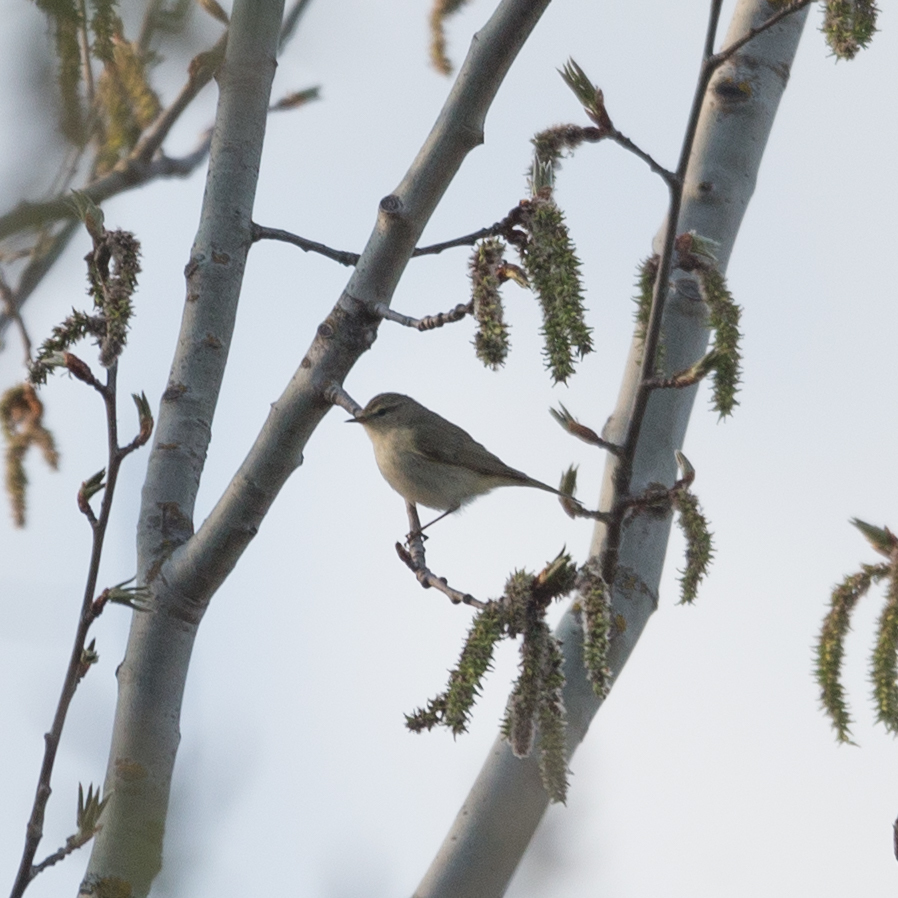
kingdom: Animalia
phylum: Chordata
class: Aves
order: Passeriformes
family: Phylloscopidae
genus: Phylloscopus
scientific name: Phylloscopus collybita
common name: Common chiffchaff
